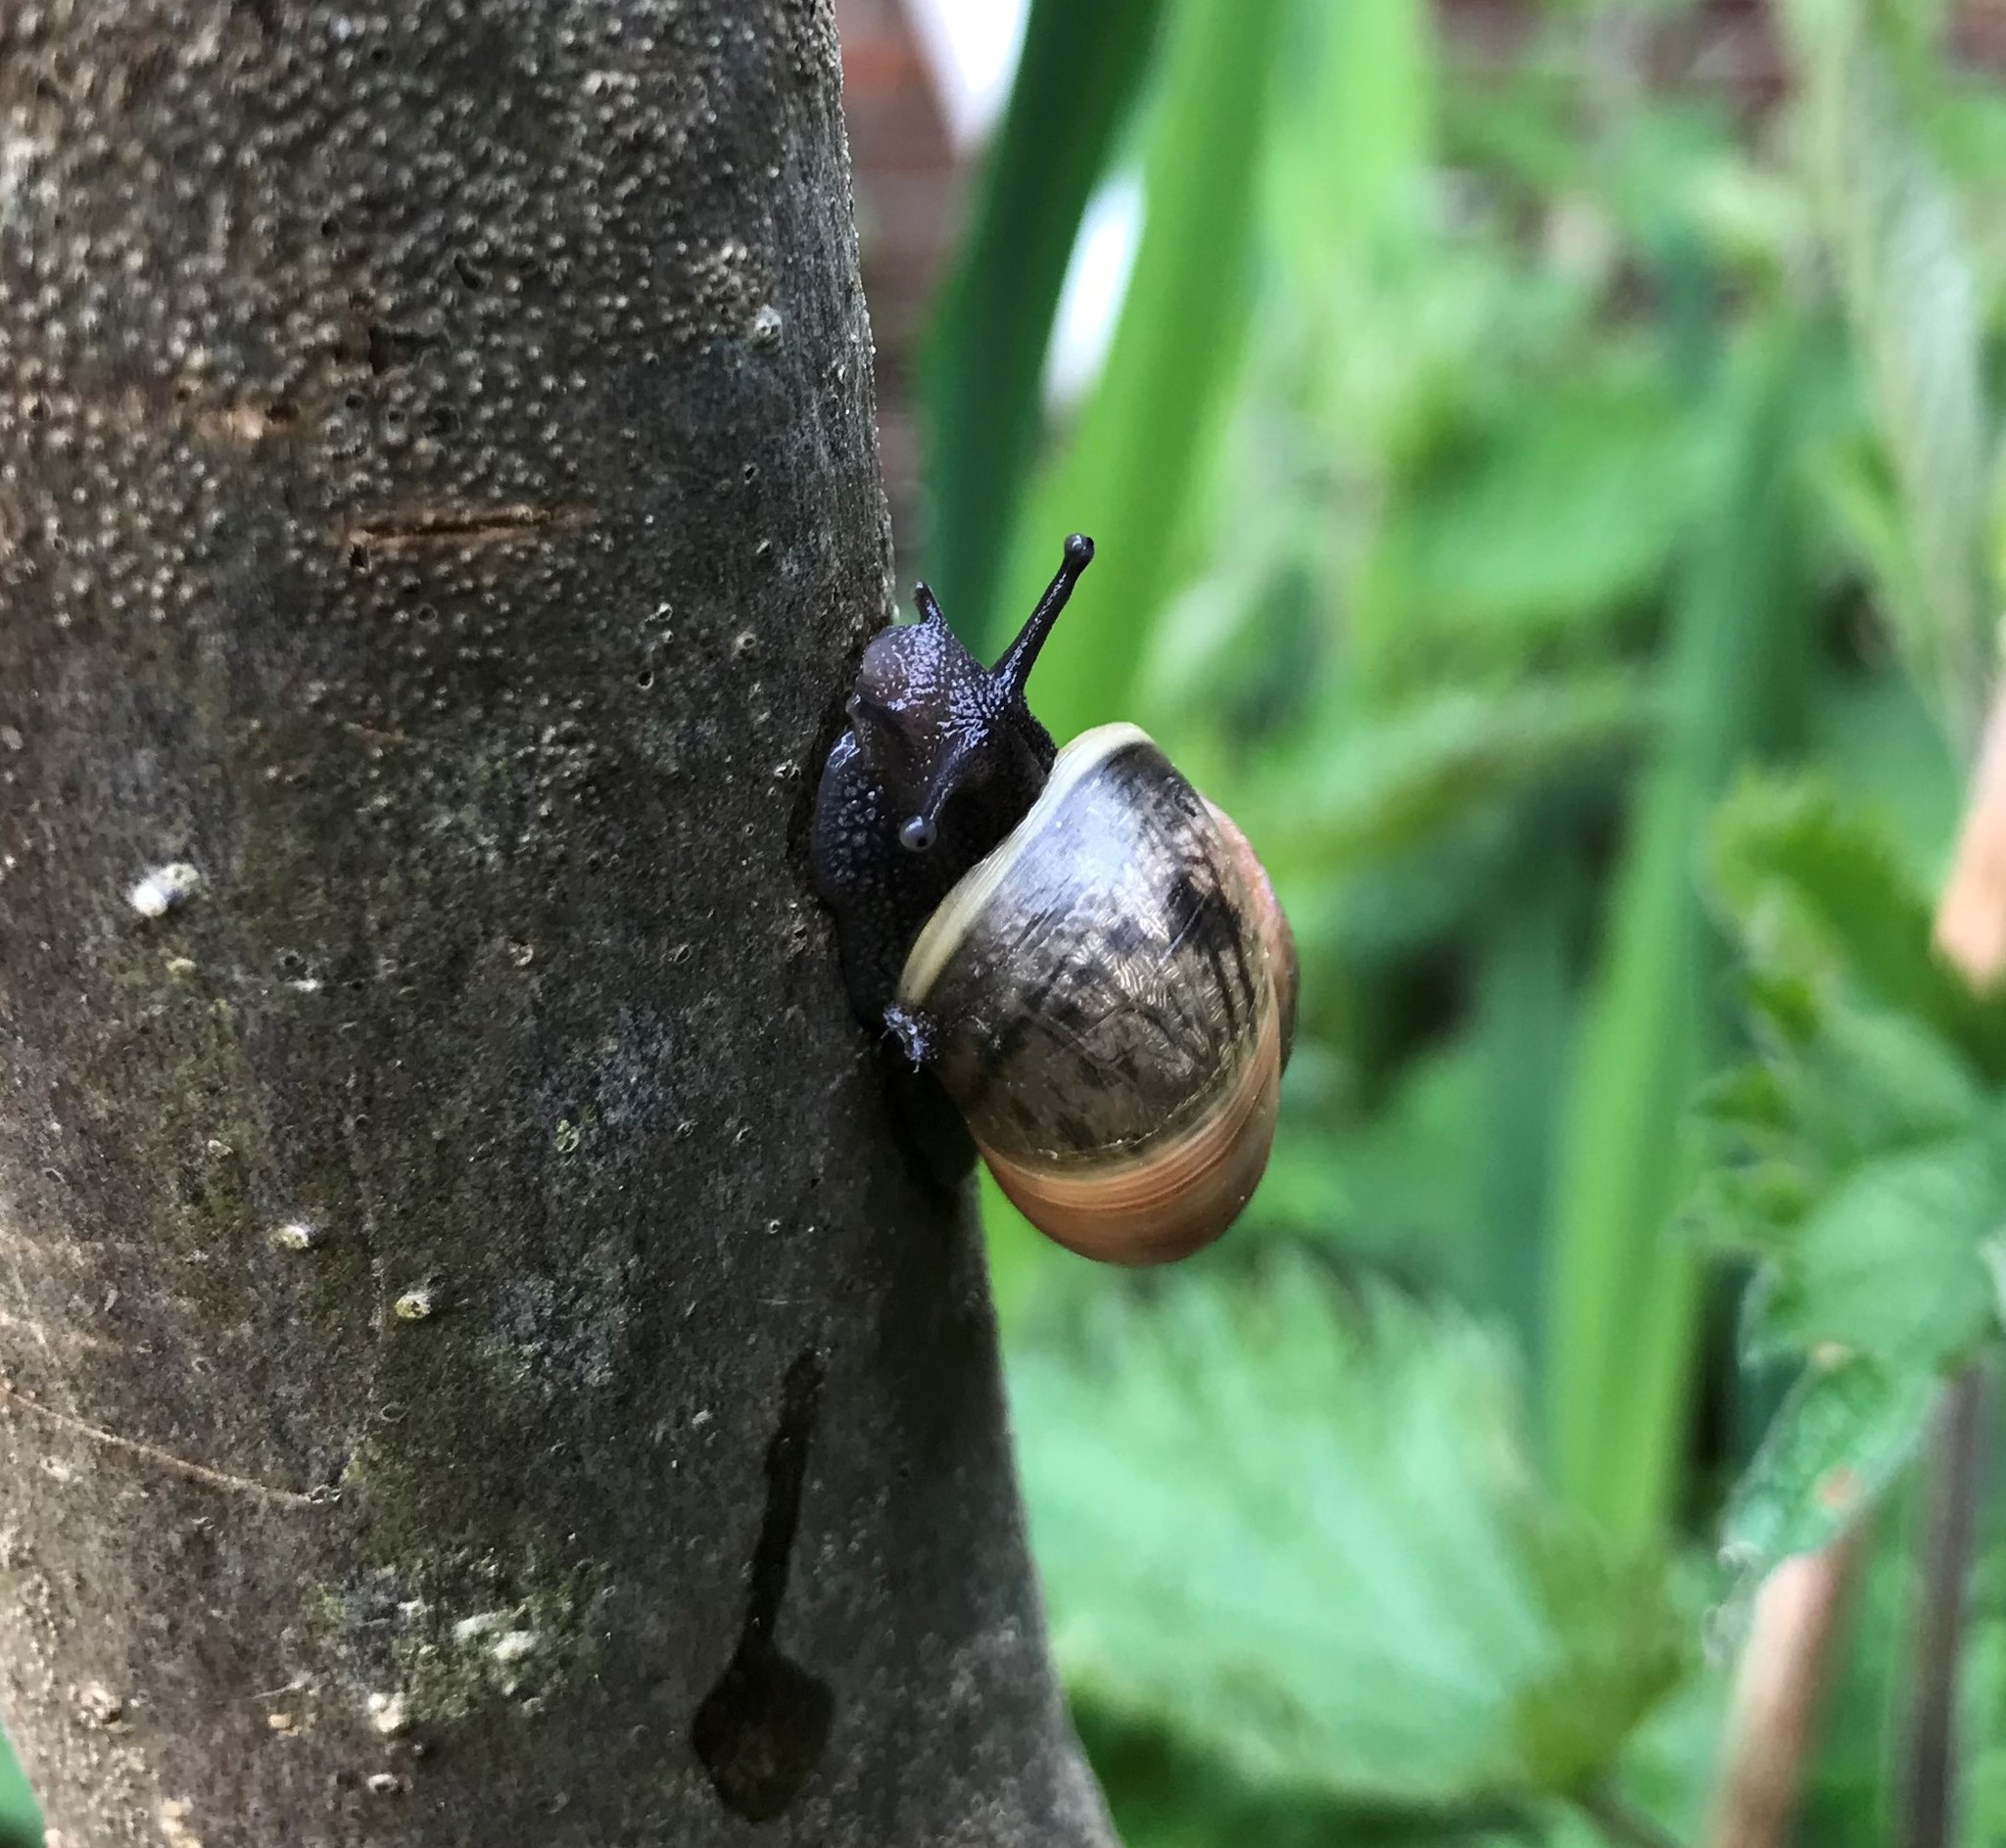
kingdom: Animalia
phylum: Mollusca
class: Gastropoda
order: Stylommatophora
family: Helicidae
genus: Cepaea
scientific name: Cepaea
